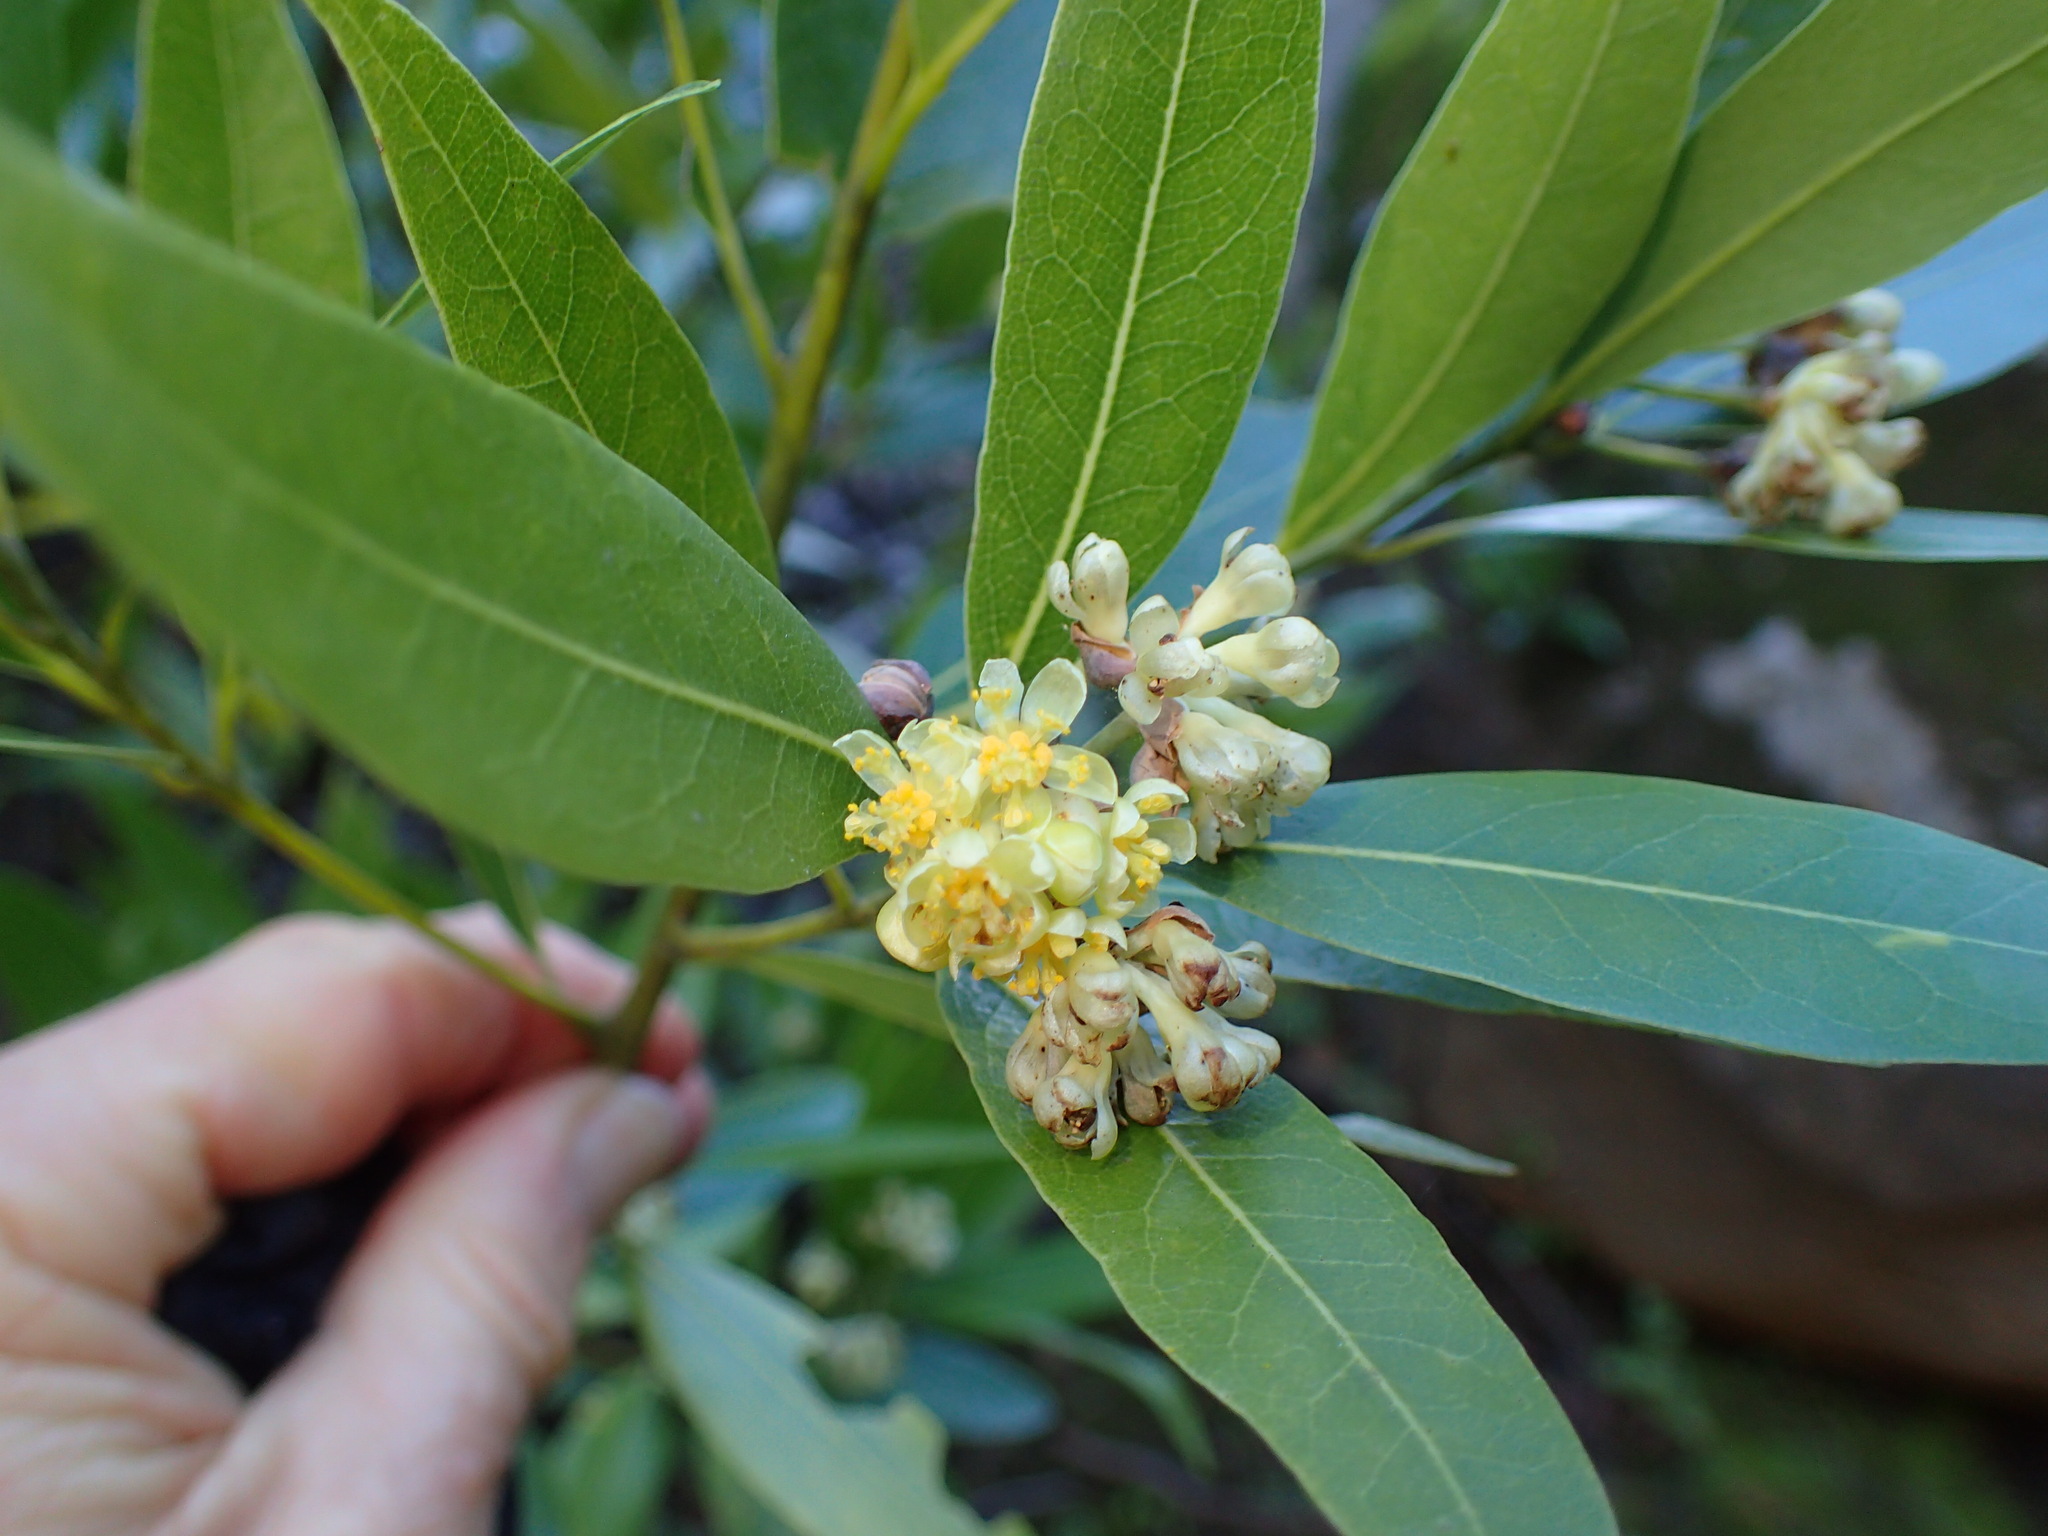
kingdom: Plantae
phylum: Tracheophyta
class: Magnoliopsida
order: Laurales
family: Lauraceae
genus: Umbellularia
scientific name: Umbellularia californica
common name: California bay
